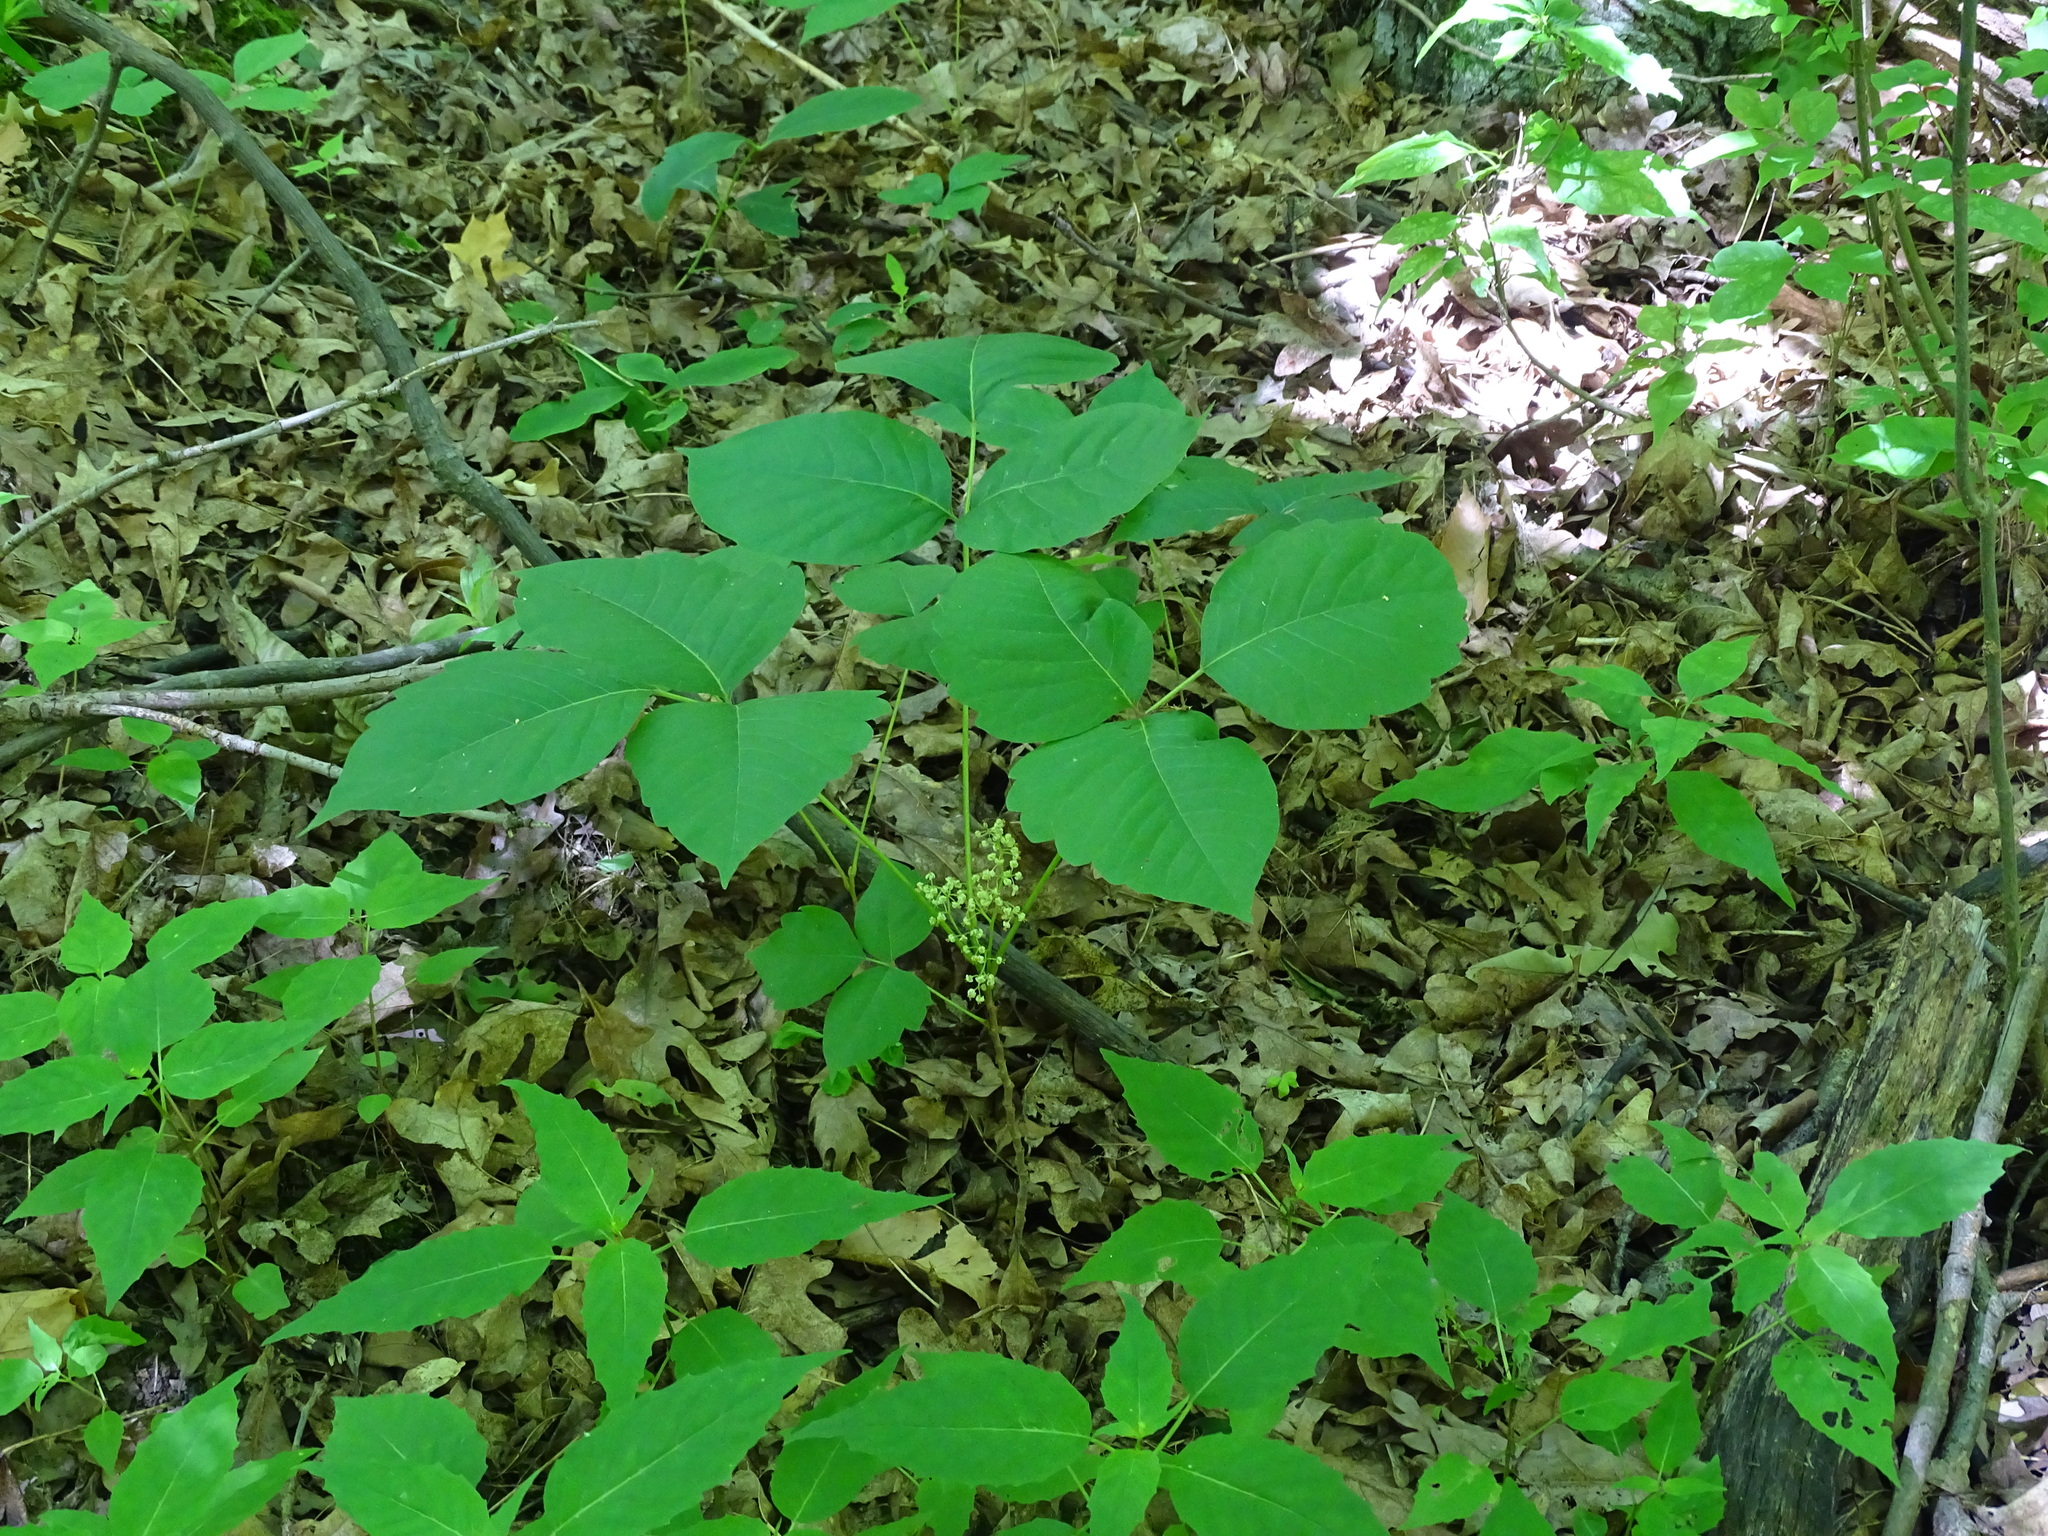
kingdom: Plantae
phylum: Tracheophyta
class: Magnoliopsida
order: Sapindales
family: Anacardiaceae
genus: Toxicodendron
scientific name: Toxicodendron rydbergii
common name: Rydberg's poison-ivy
